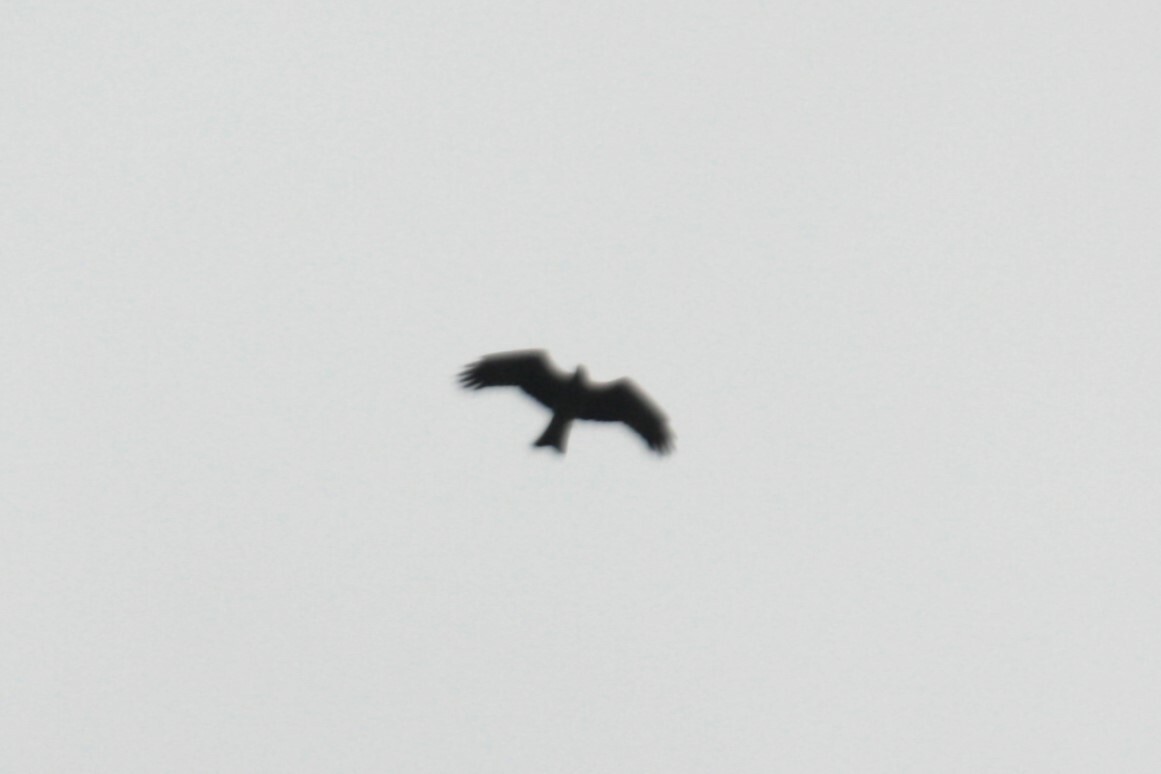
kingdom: Animalia
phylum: Chordata
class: Aves
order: Accipitriformes
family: Accipitridae
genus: Milvus
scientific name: Milvus migrans
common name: Black kite
